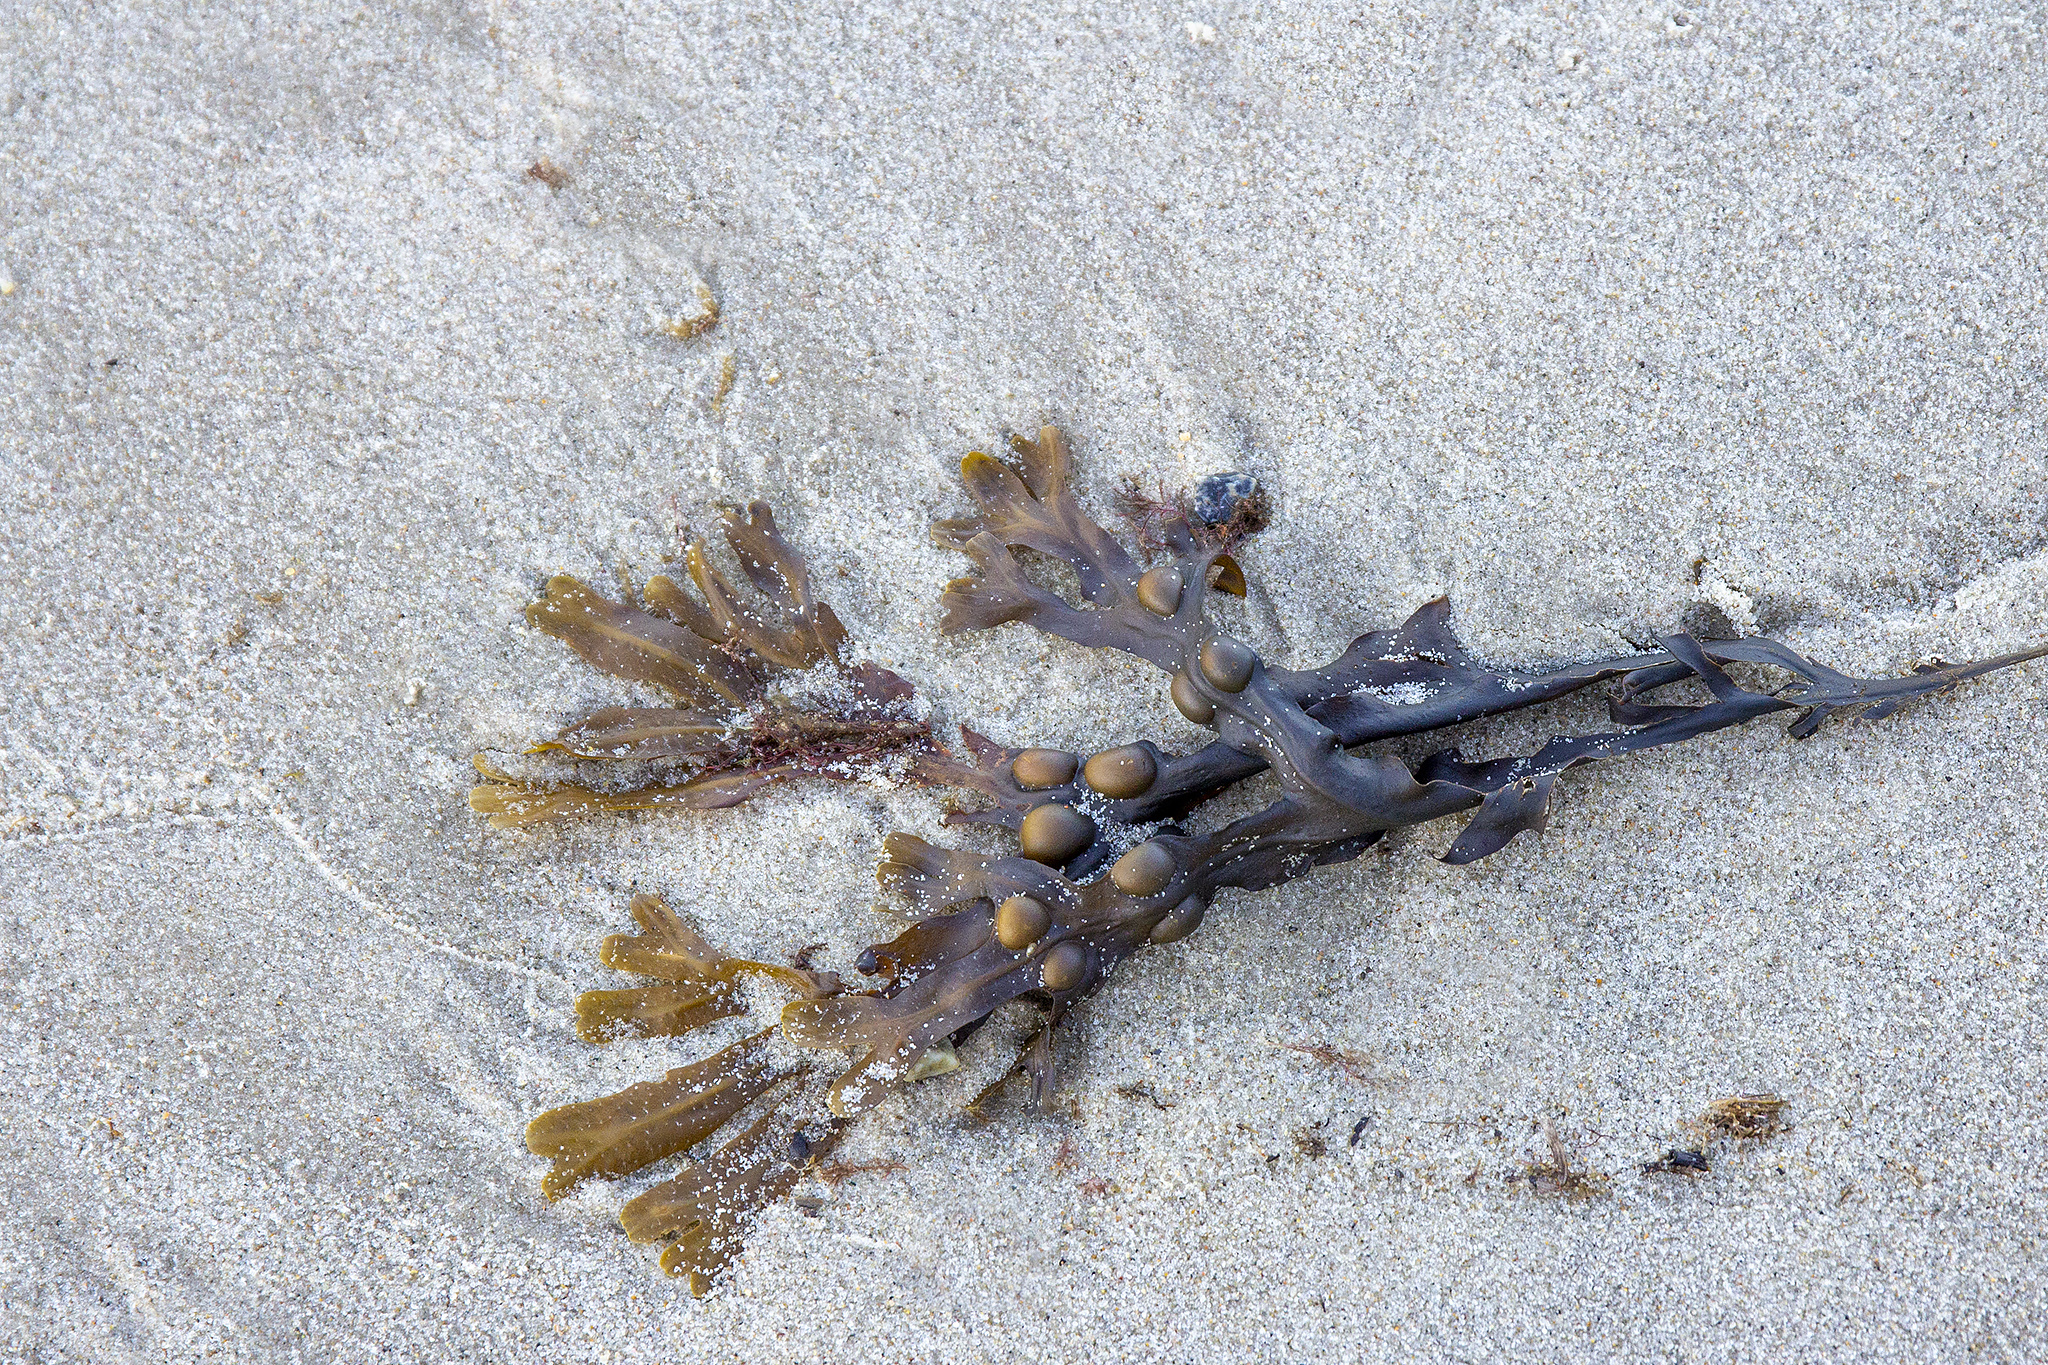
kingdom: Chromista
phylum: Ochrophyta
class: Phaeophyceae
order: Fucales
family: Fucaceae
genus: Fucus
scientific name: Fucus vesiculosus
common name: Bladder wrack
